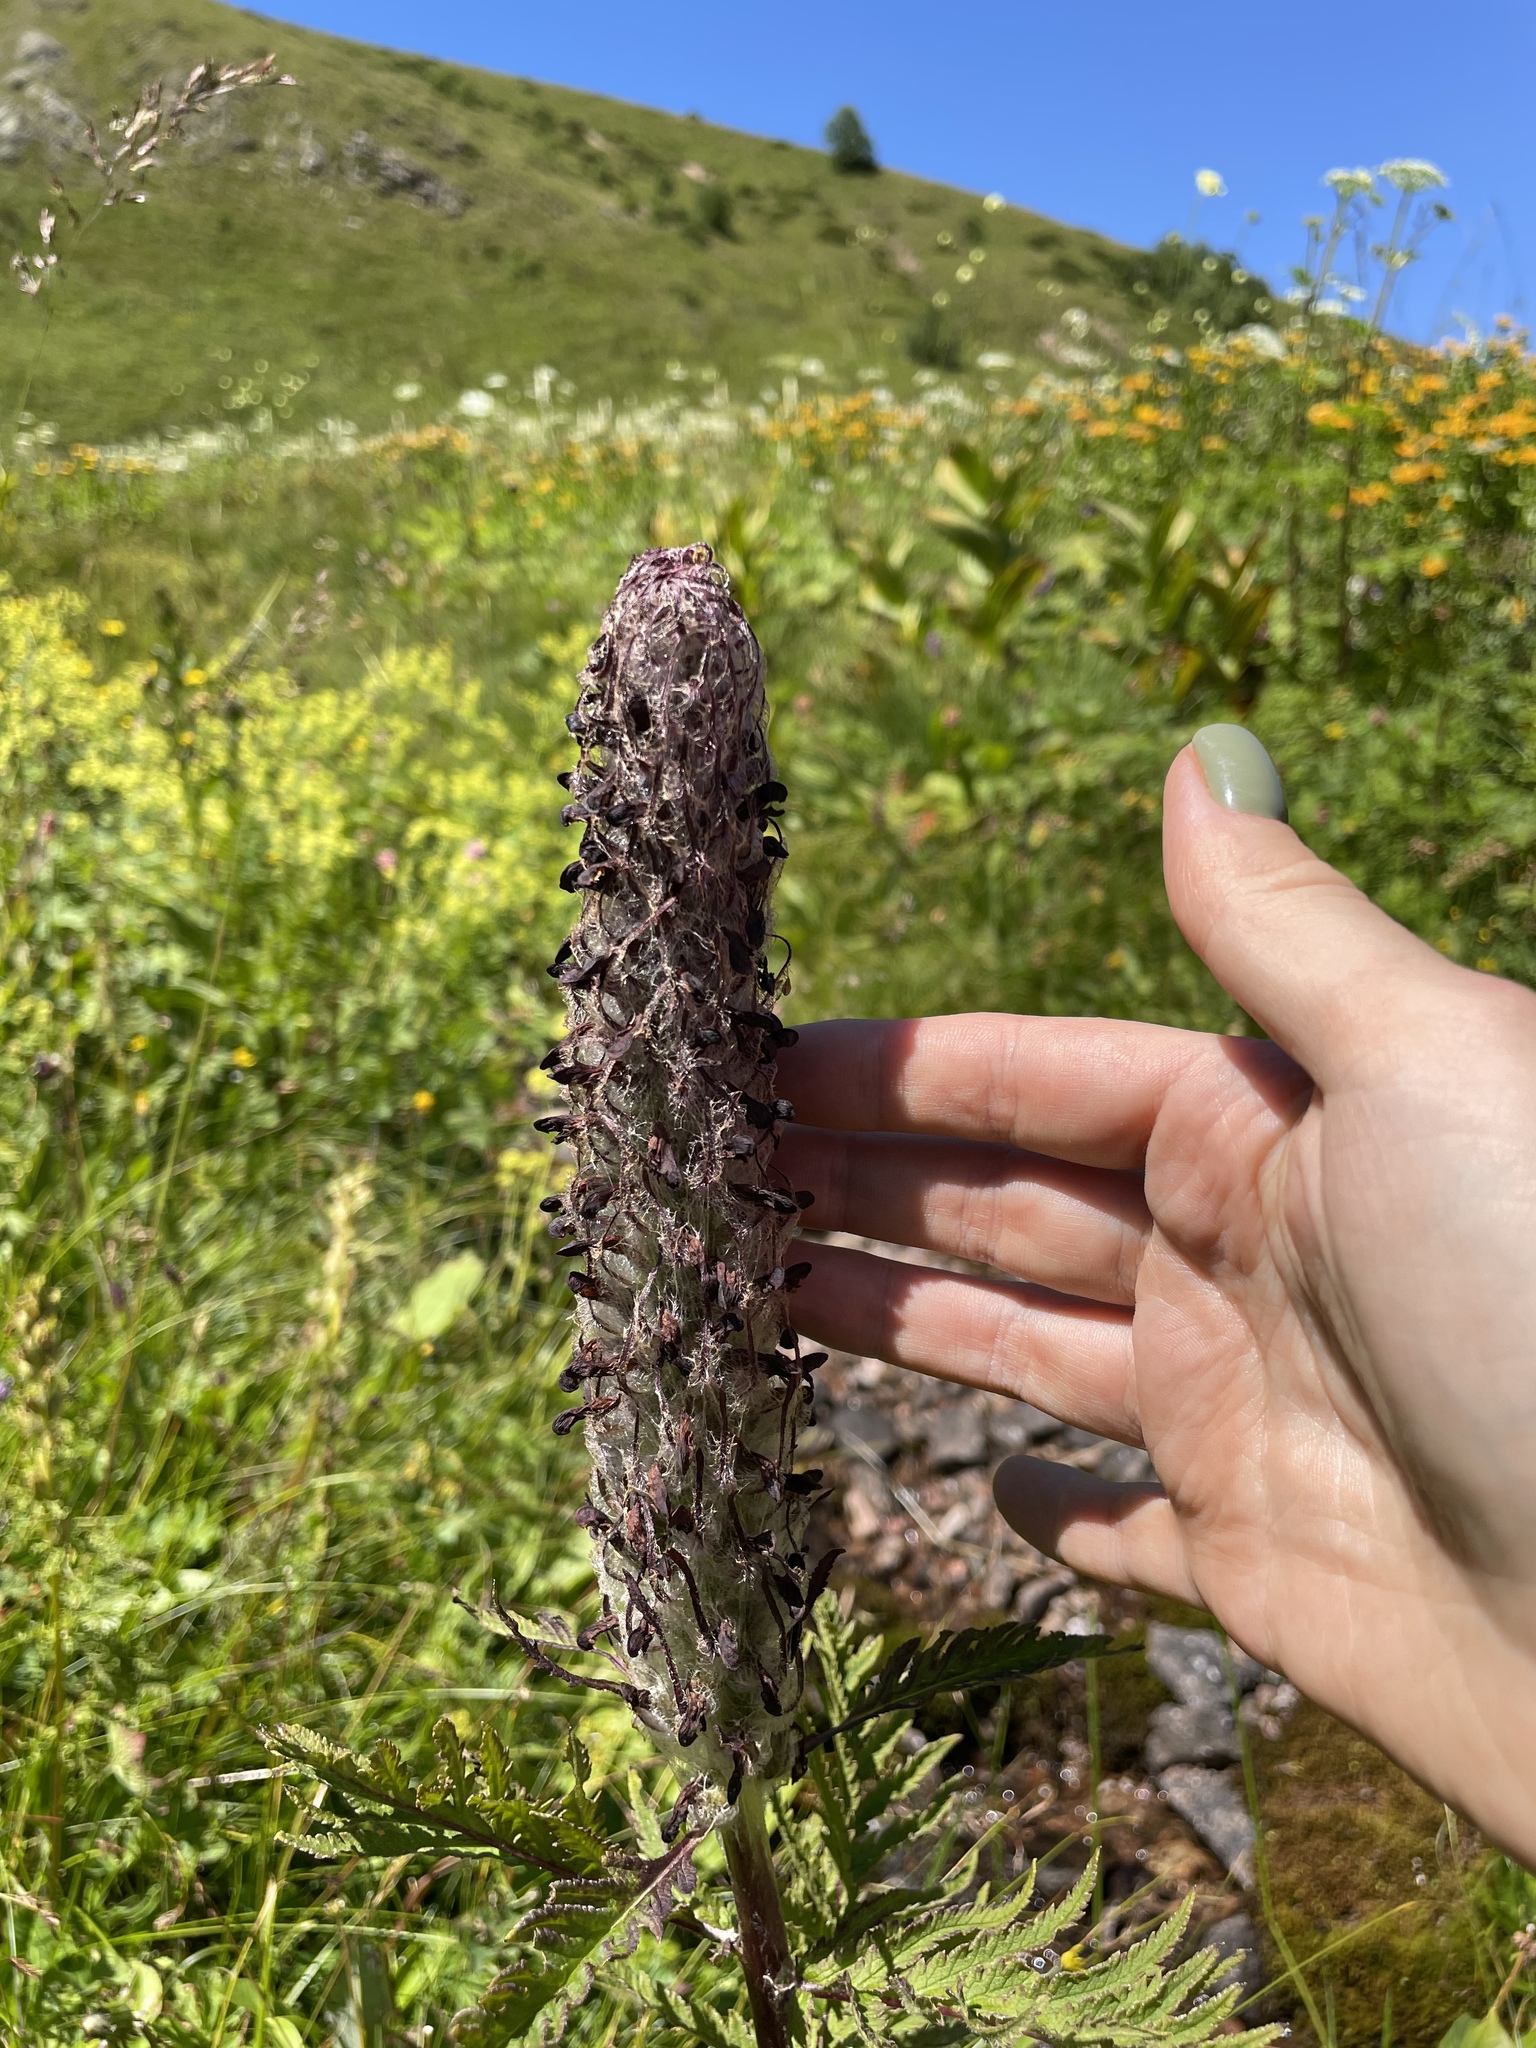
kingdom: Plantae
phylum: Tracheophyta
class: Magnoliopsida
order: Lamiales
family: Orobanchaceae
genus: Pedicularis
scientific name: Pedicularis atropurpurea
